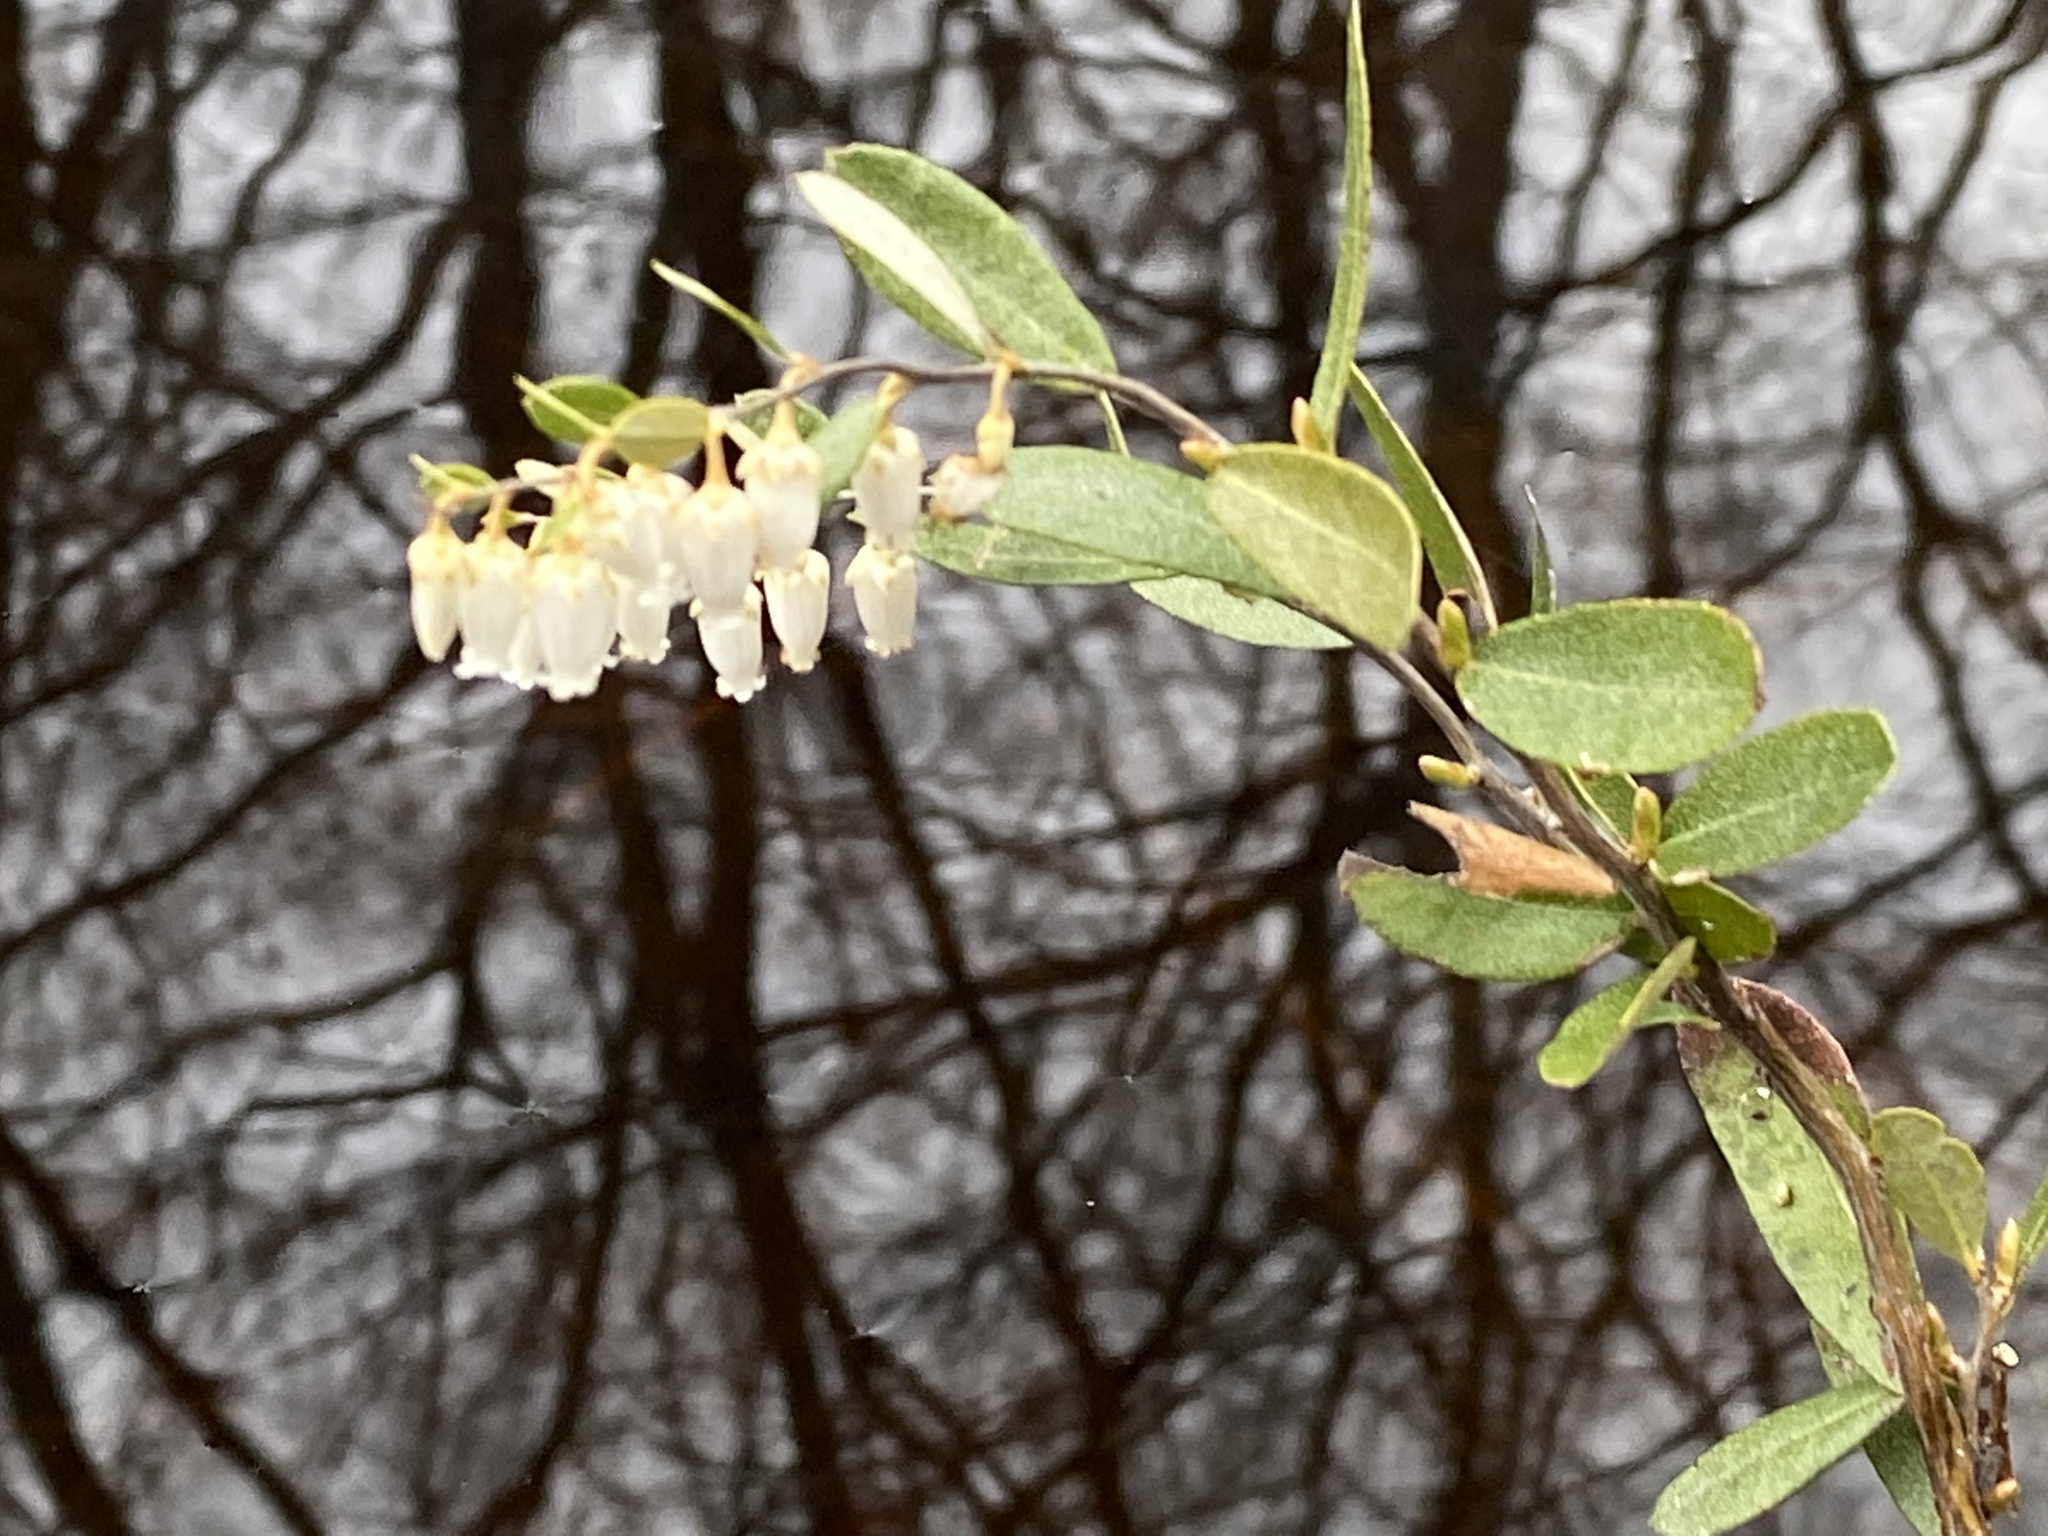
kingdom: Plantae
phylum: Tracheophyta
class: Magnoliopsida
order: Ericales
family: Ericaceae
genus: Chamaedaphne
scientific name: Chamaedaphne calyculata
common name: Leatherleaf
